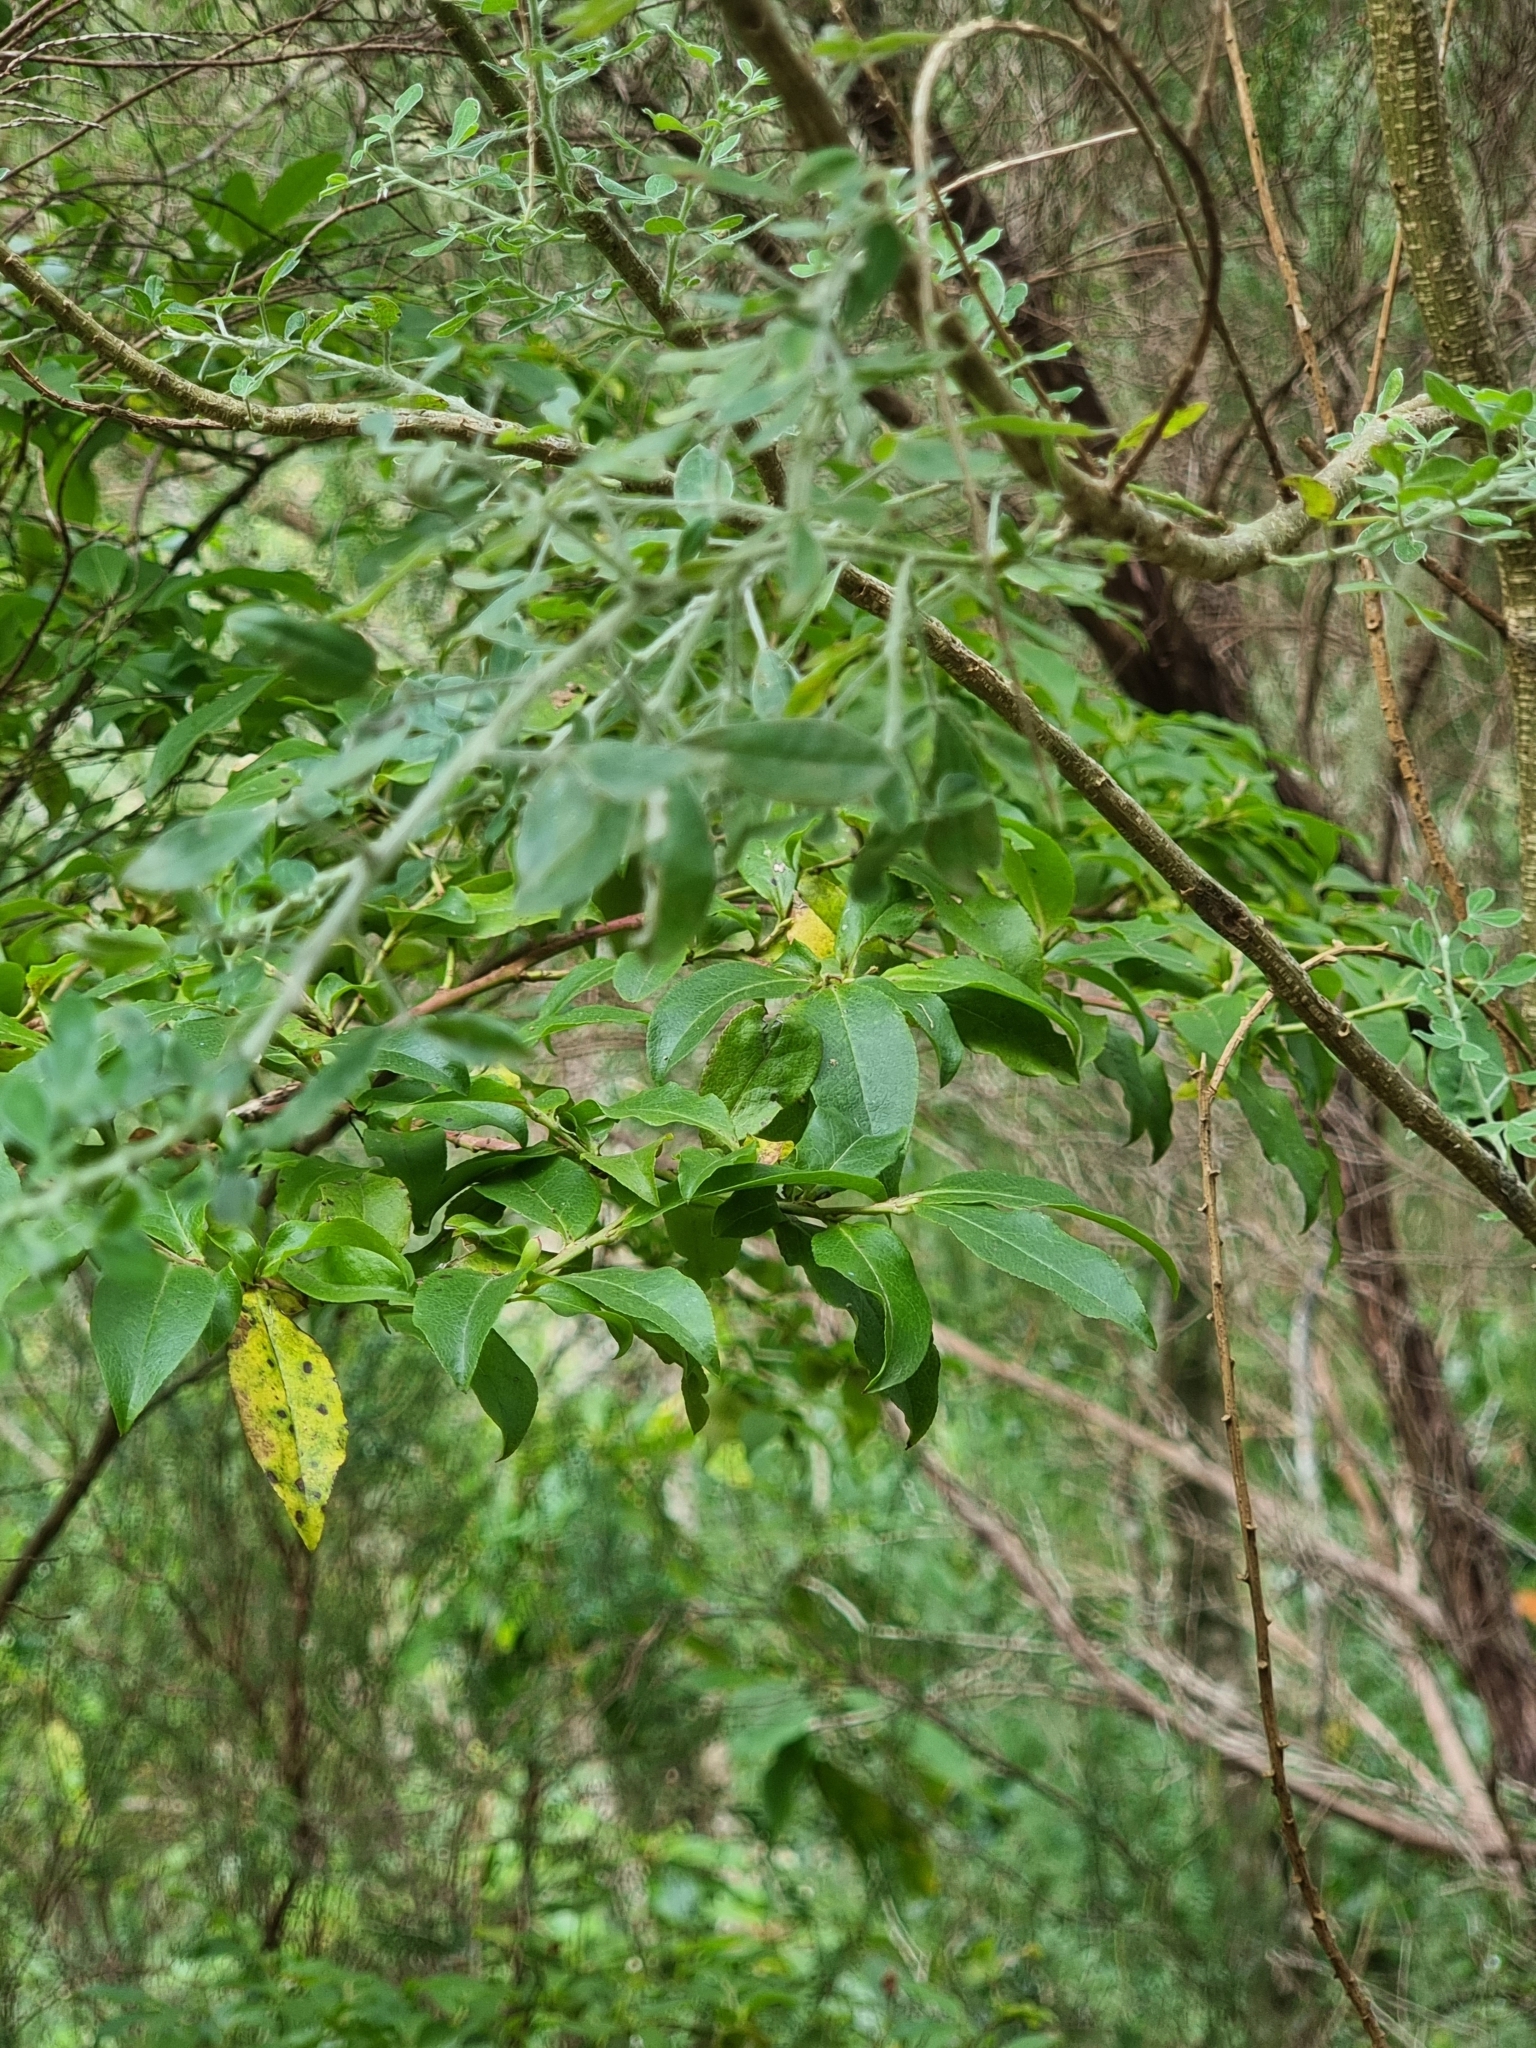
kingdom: Plantae
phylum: Tracheophyta
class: Magnoliopsida
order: Ericales
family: Ericaceae
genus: Vaccinium
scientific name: Vaccinium padifolium
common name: Madeiran blueberry
